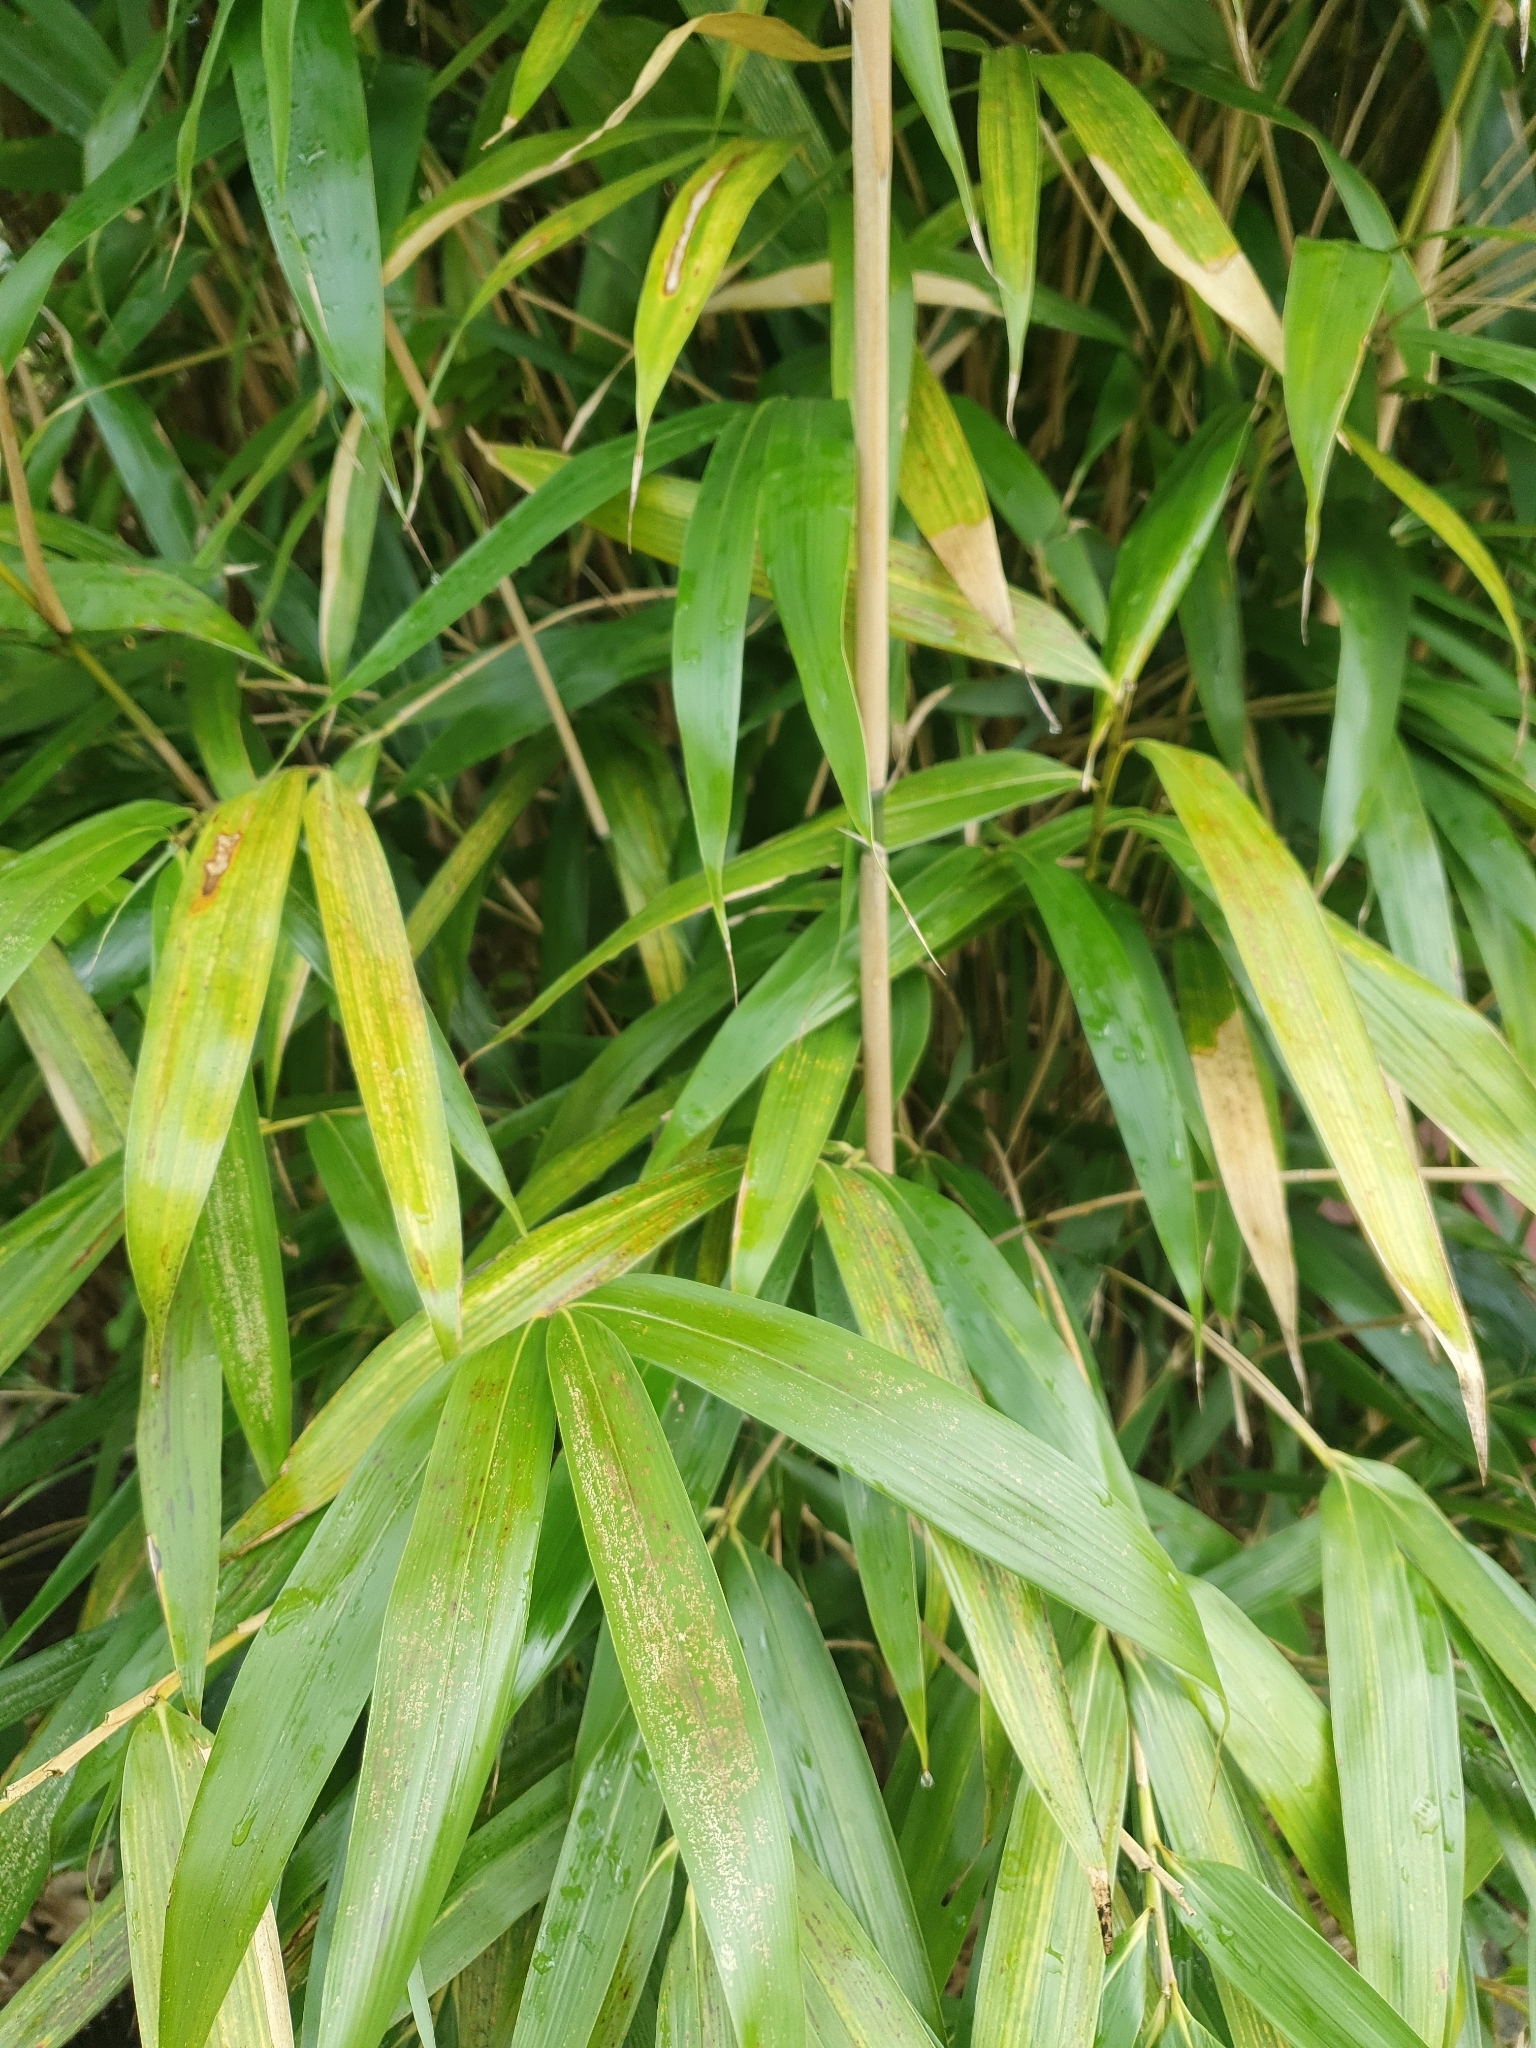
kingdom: Plantae
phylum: Tracheophyta
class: Liliopsida
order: Poales
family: Poaceae
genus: Pseudosasa
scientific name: Pseudosasa japonica
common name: Arrow bamboo
